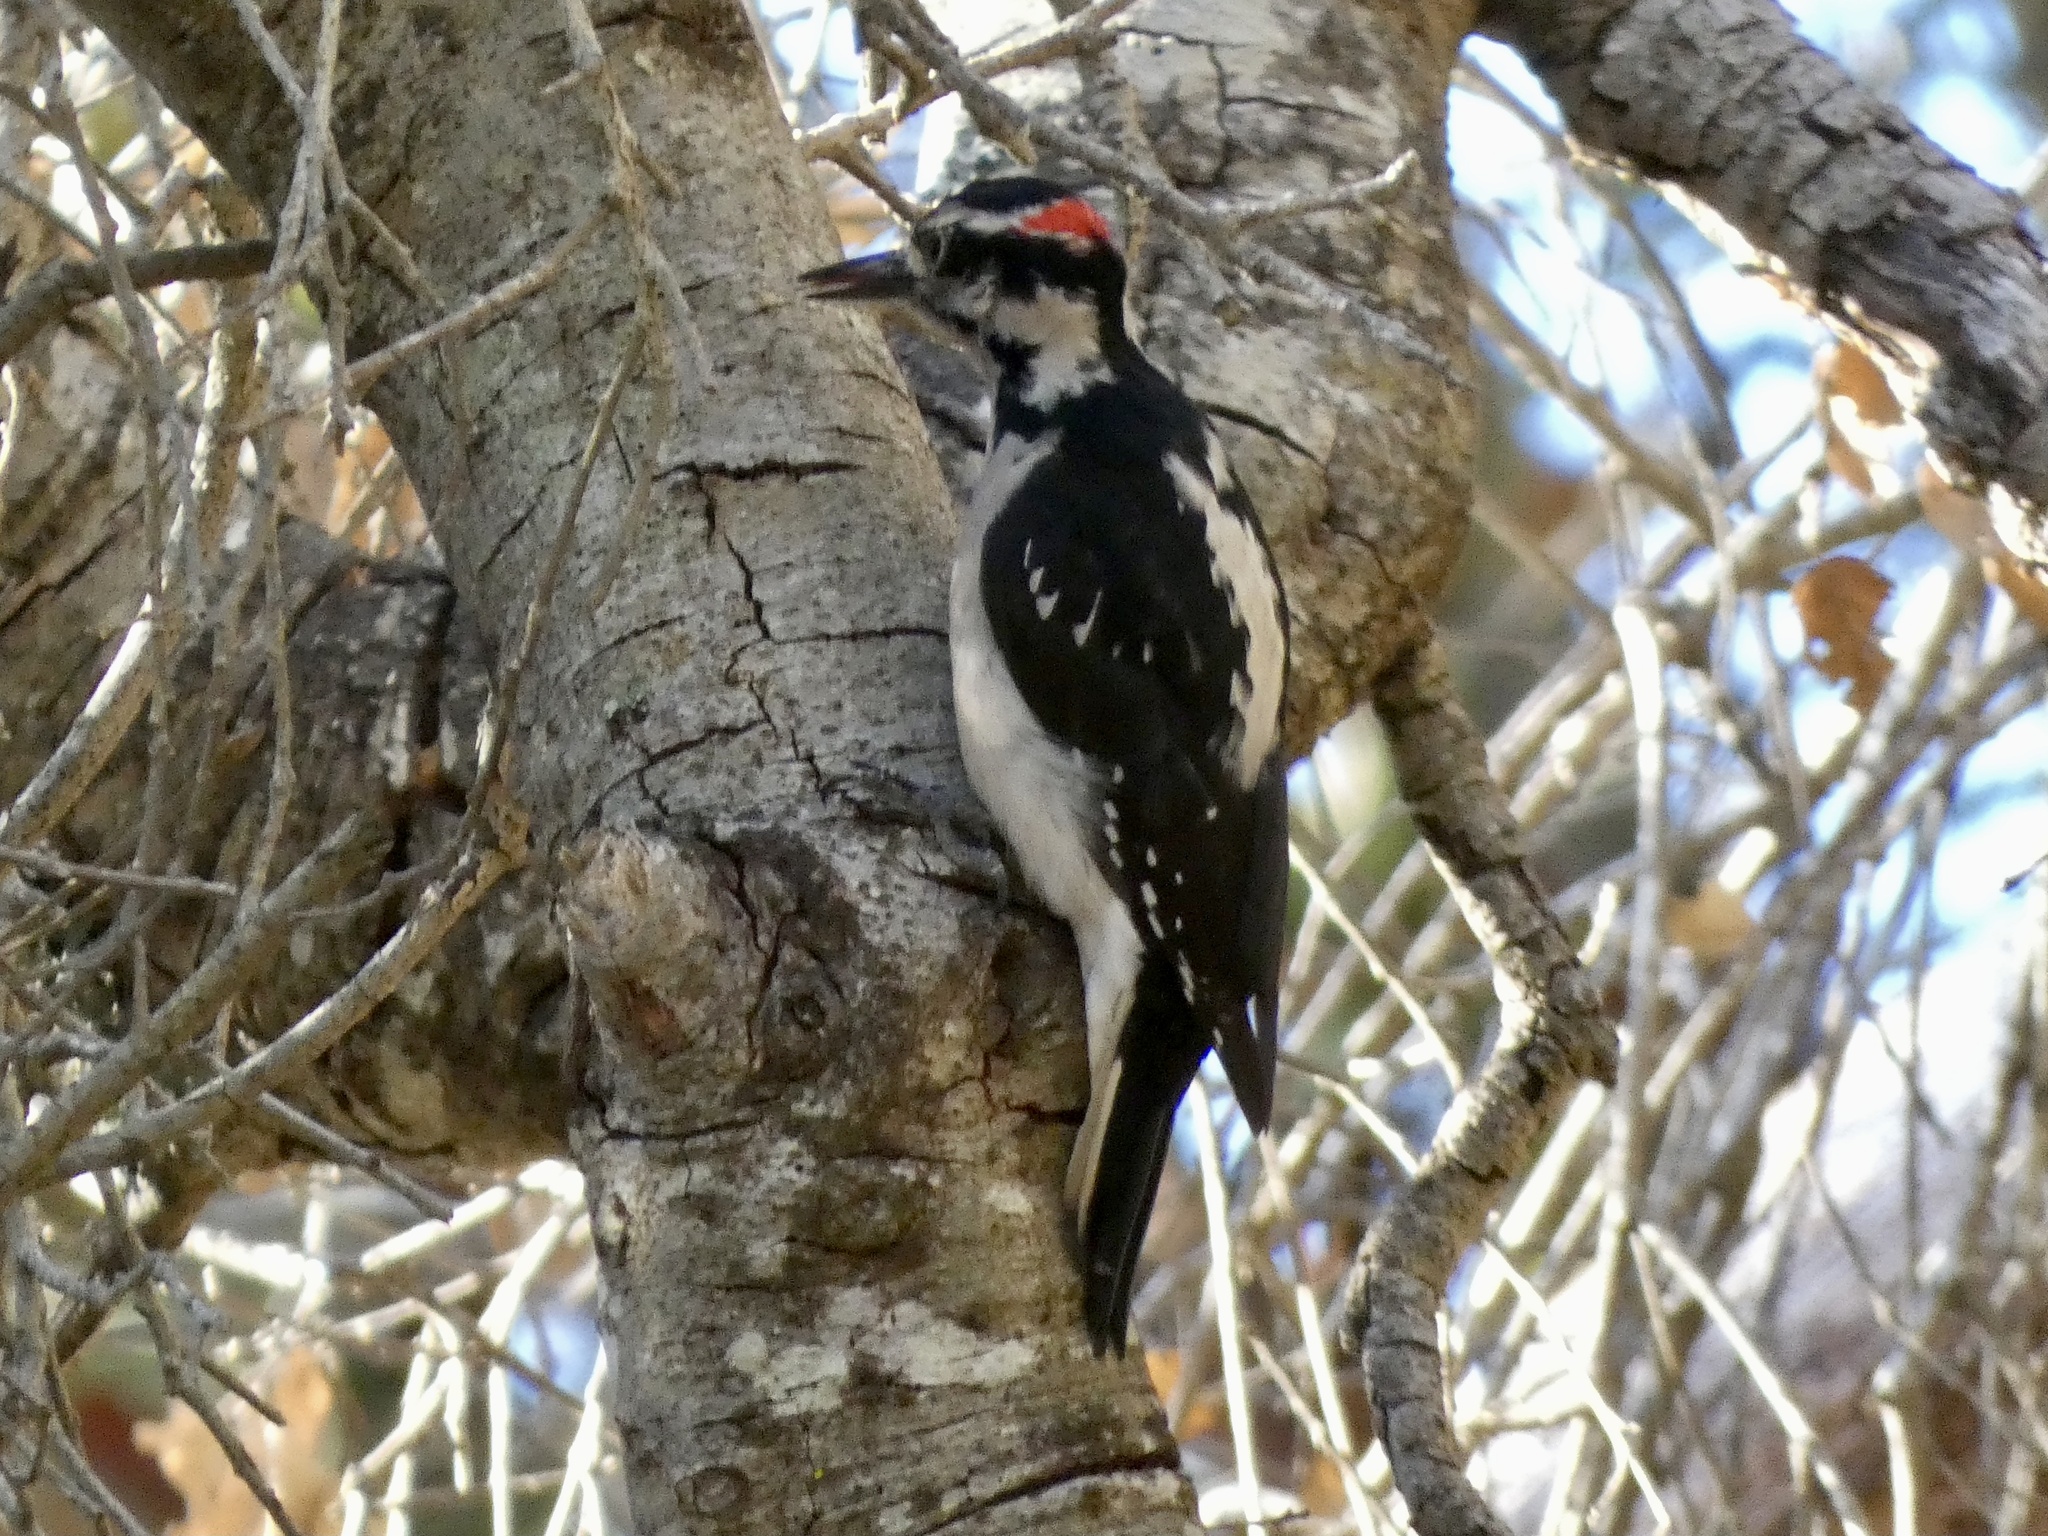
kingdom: Animalia
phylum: Chordata
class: Aves
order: Piciformes
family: Picidae
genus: Leuconotopicus
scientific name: Leuconotopicus villosus
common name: Hairy woodpecker
